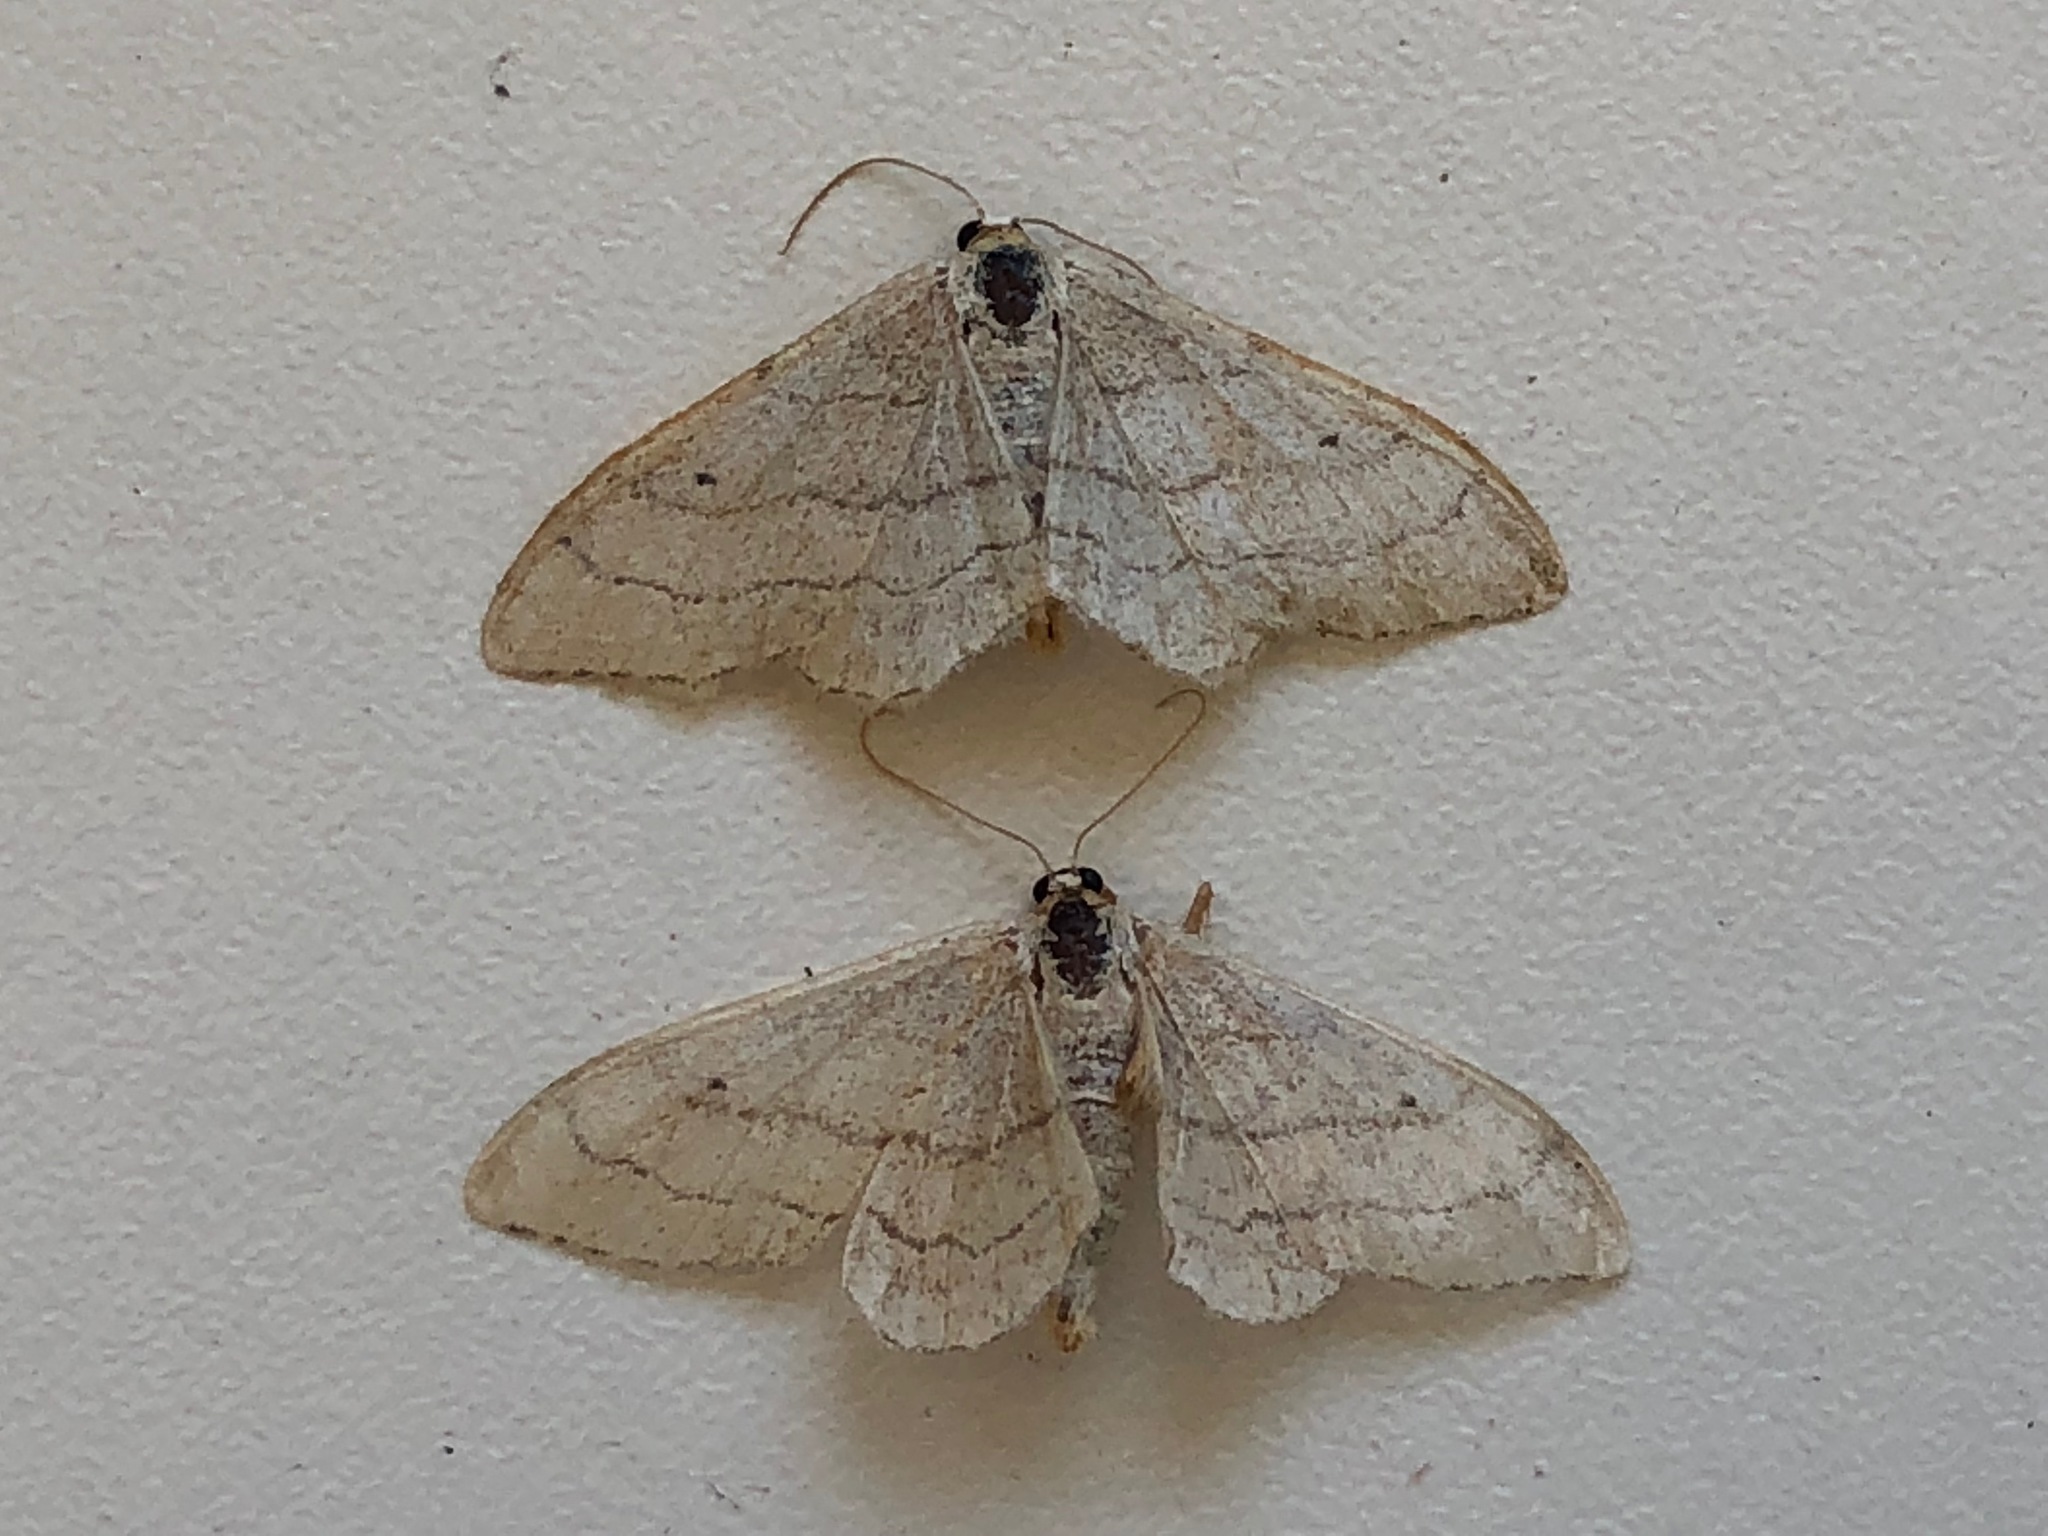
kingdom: Animalia
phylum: Arthropoda
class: Insecta
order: Lepidoptera
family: Geometridae
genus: Idaea
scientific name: Idaea aversata
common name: Riband wave
